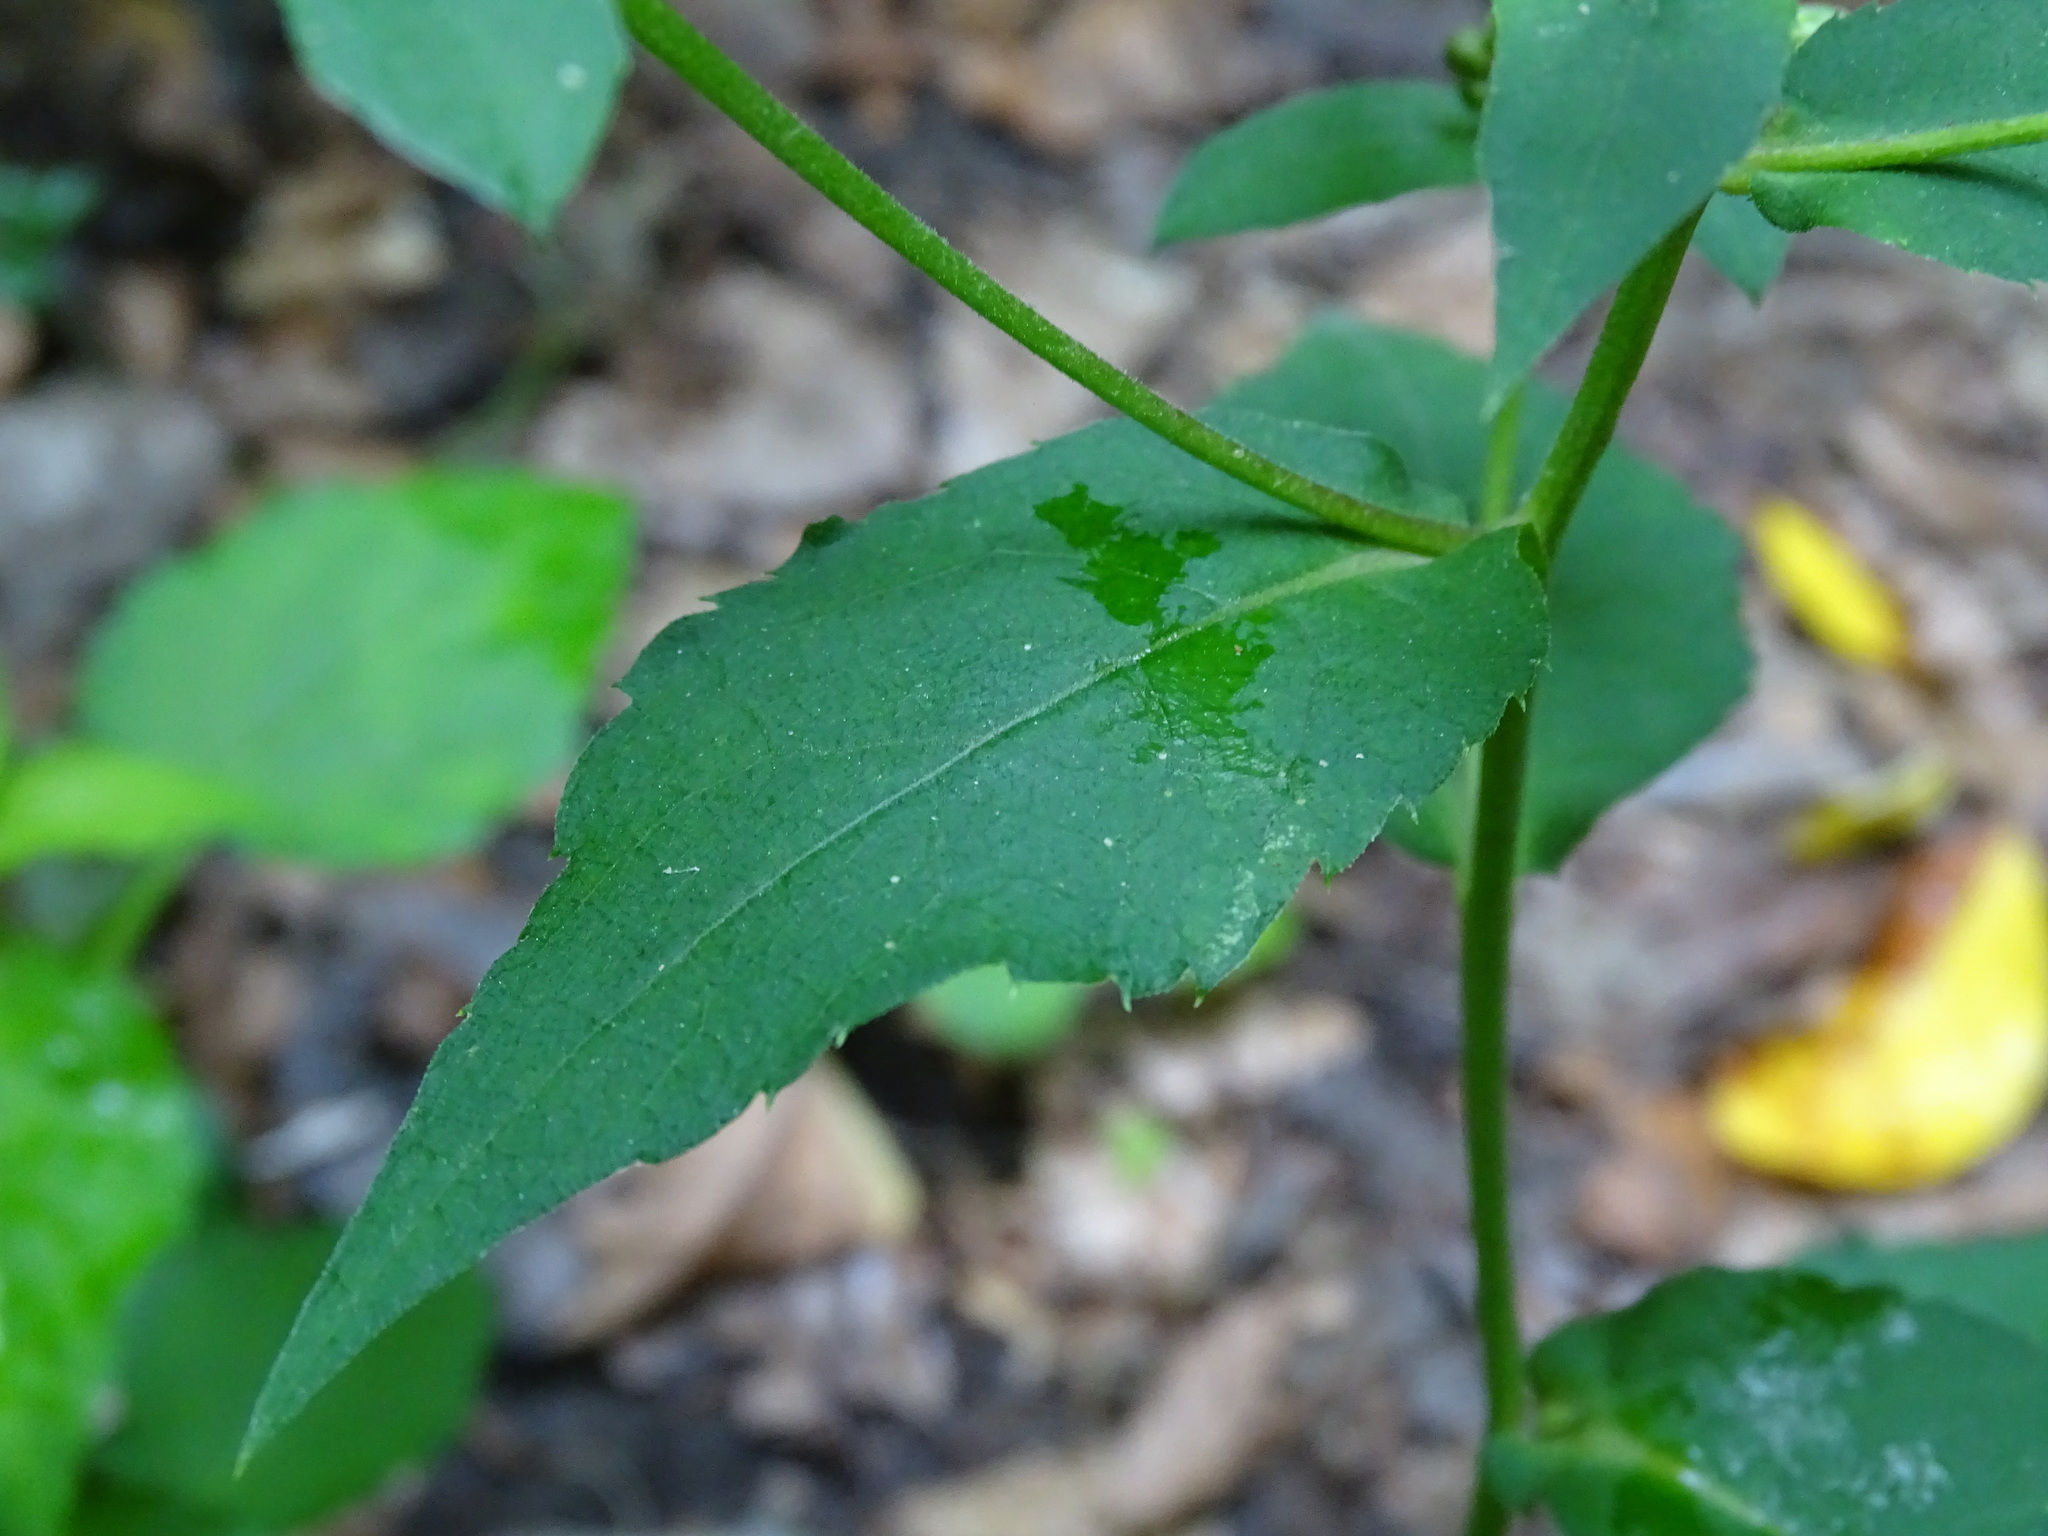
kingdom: Plantae
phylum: Tracheophyta
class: Magnoliopsida
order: Asterales
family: Asteraceae
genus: Eurybia
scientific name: Eurybia macrophylla
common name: Big-leaved aster
